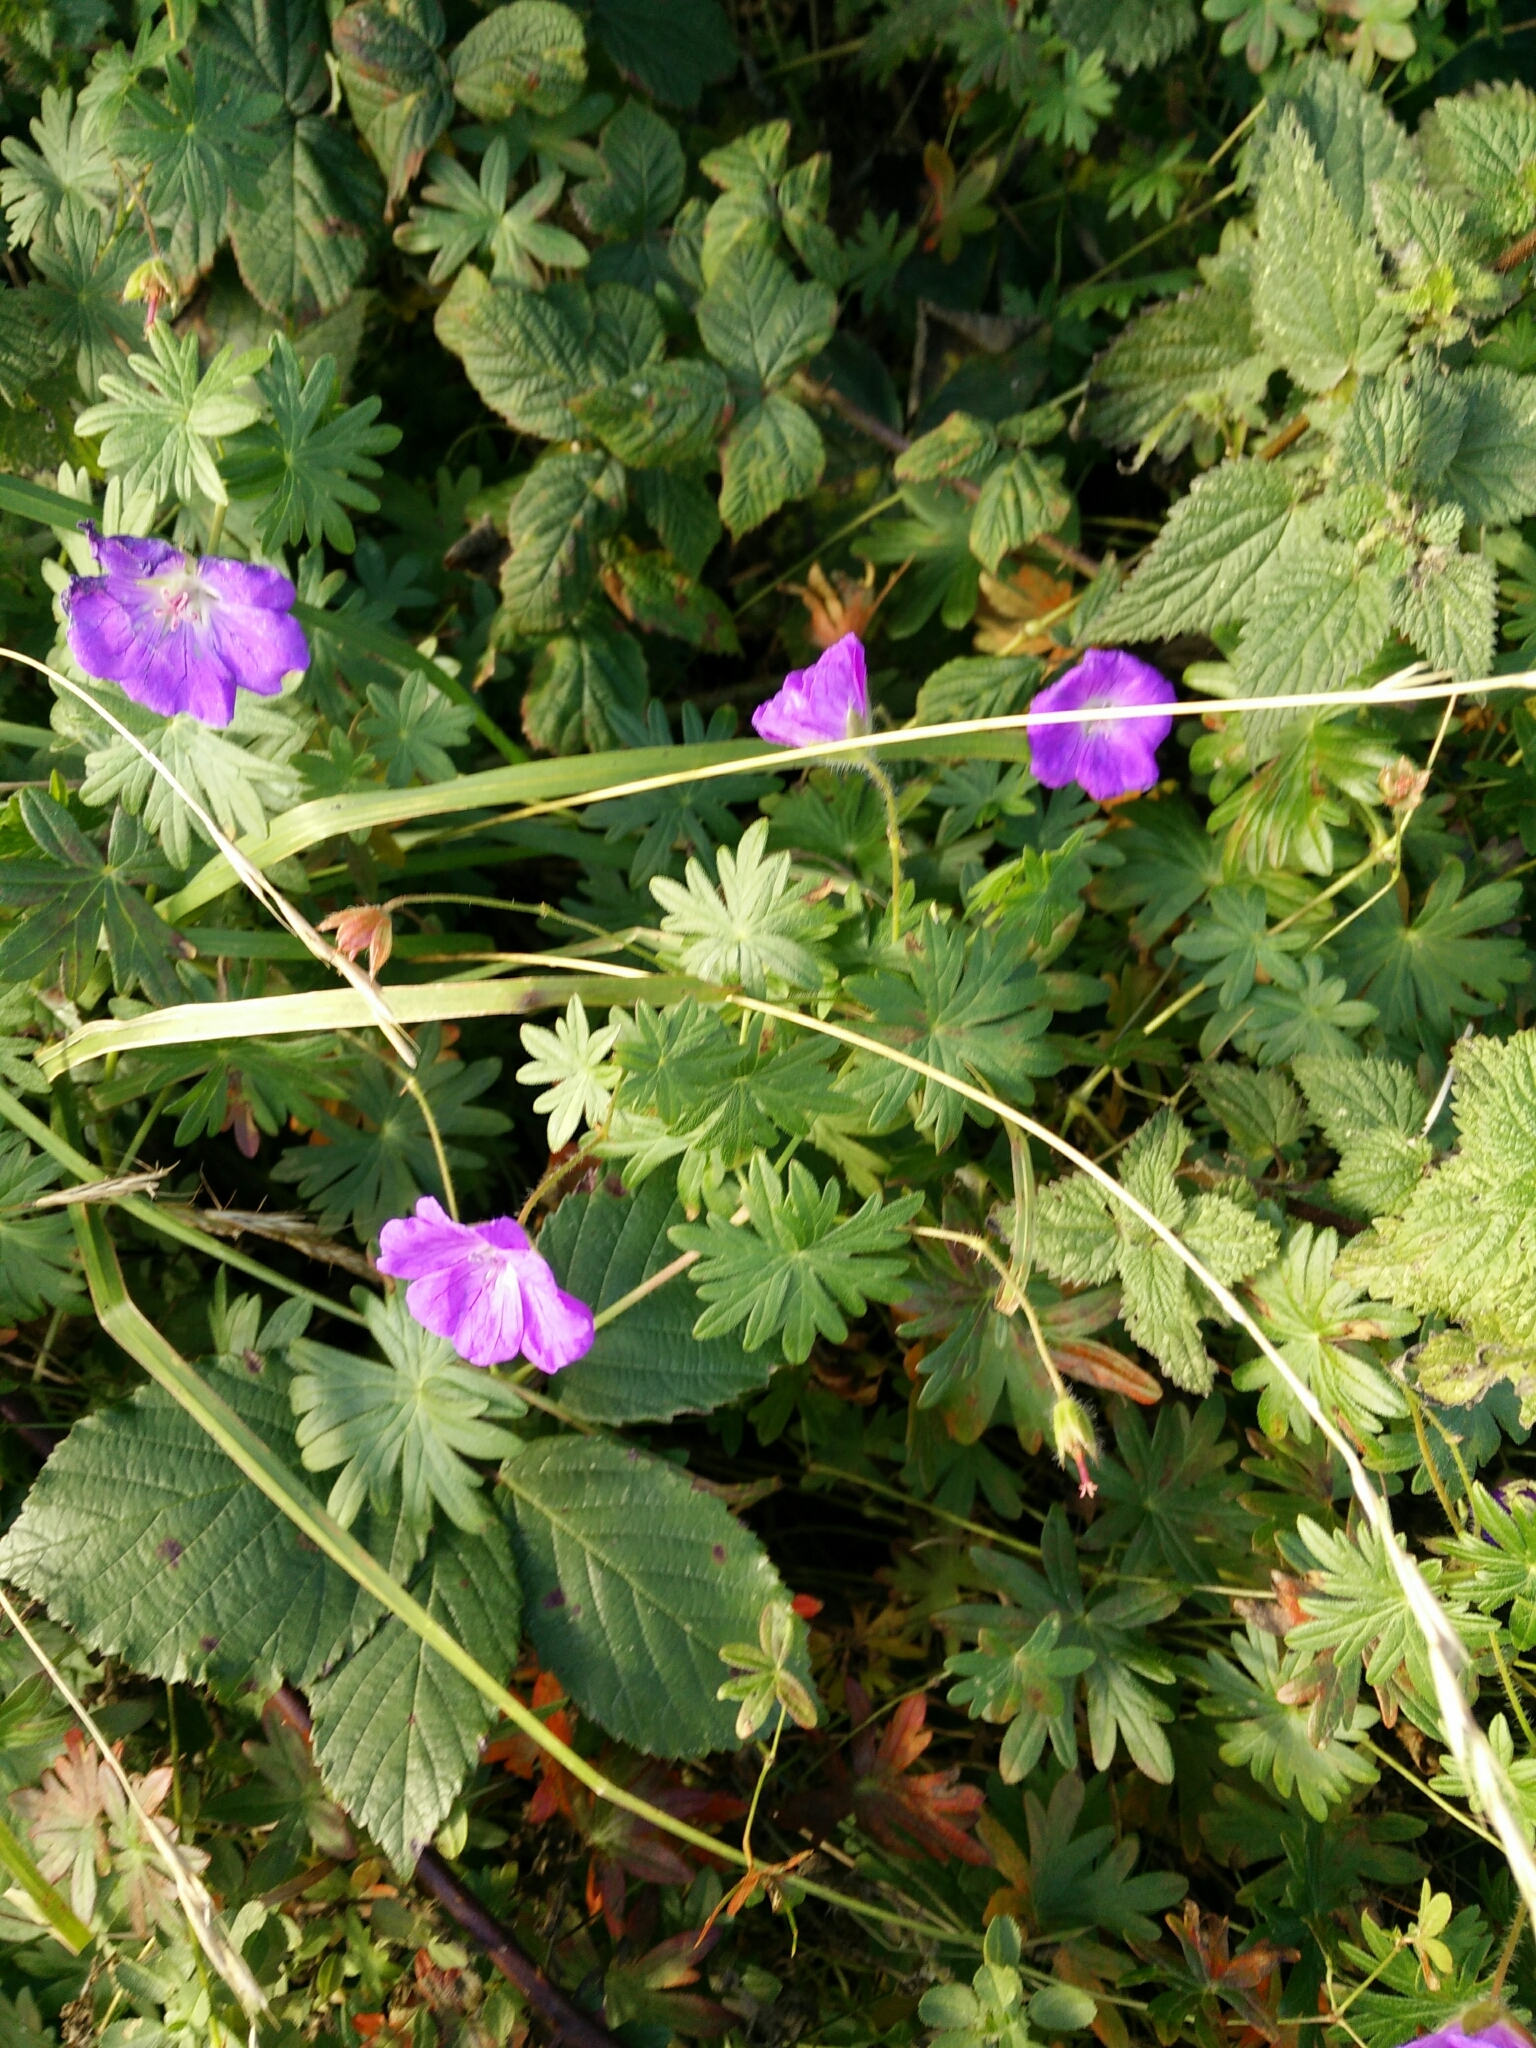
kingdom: Plantae
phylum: Tracheophyta
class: Magnoliopsida
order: Geraniales
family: Geraniaceae
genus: Geranium
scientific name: Geranium sanguineum
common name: Bloody crane's-bill
